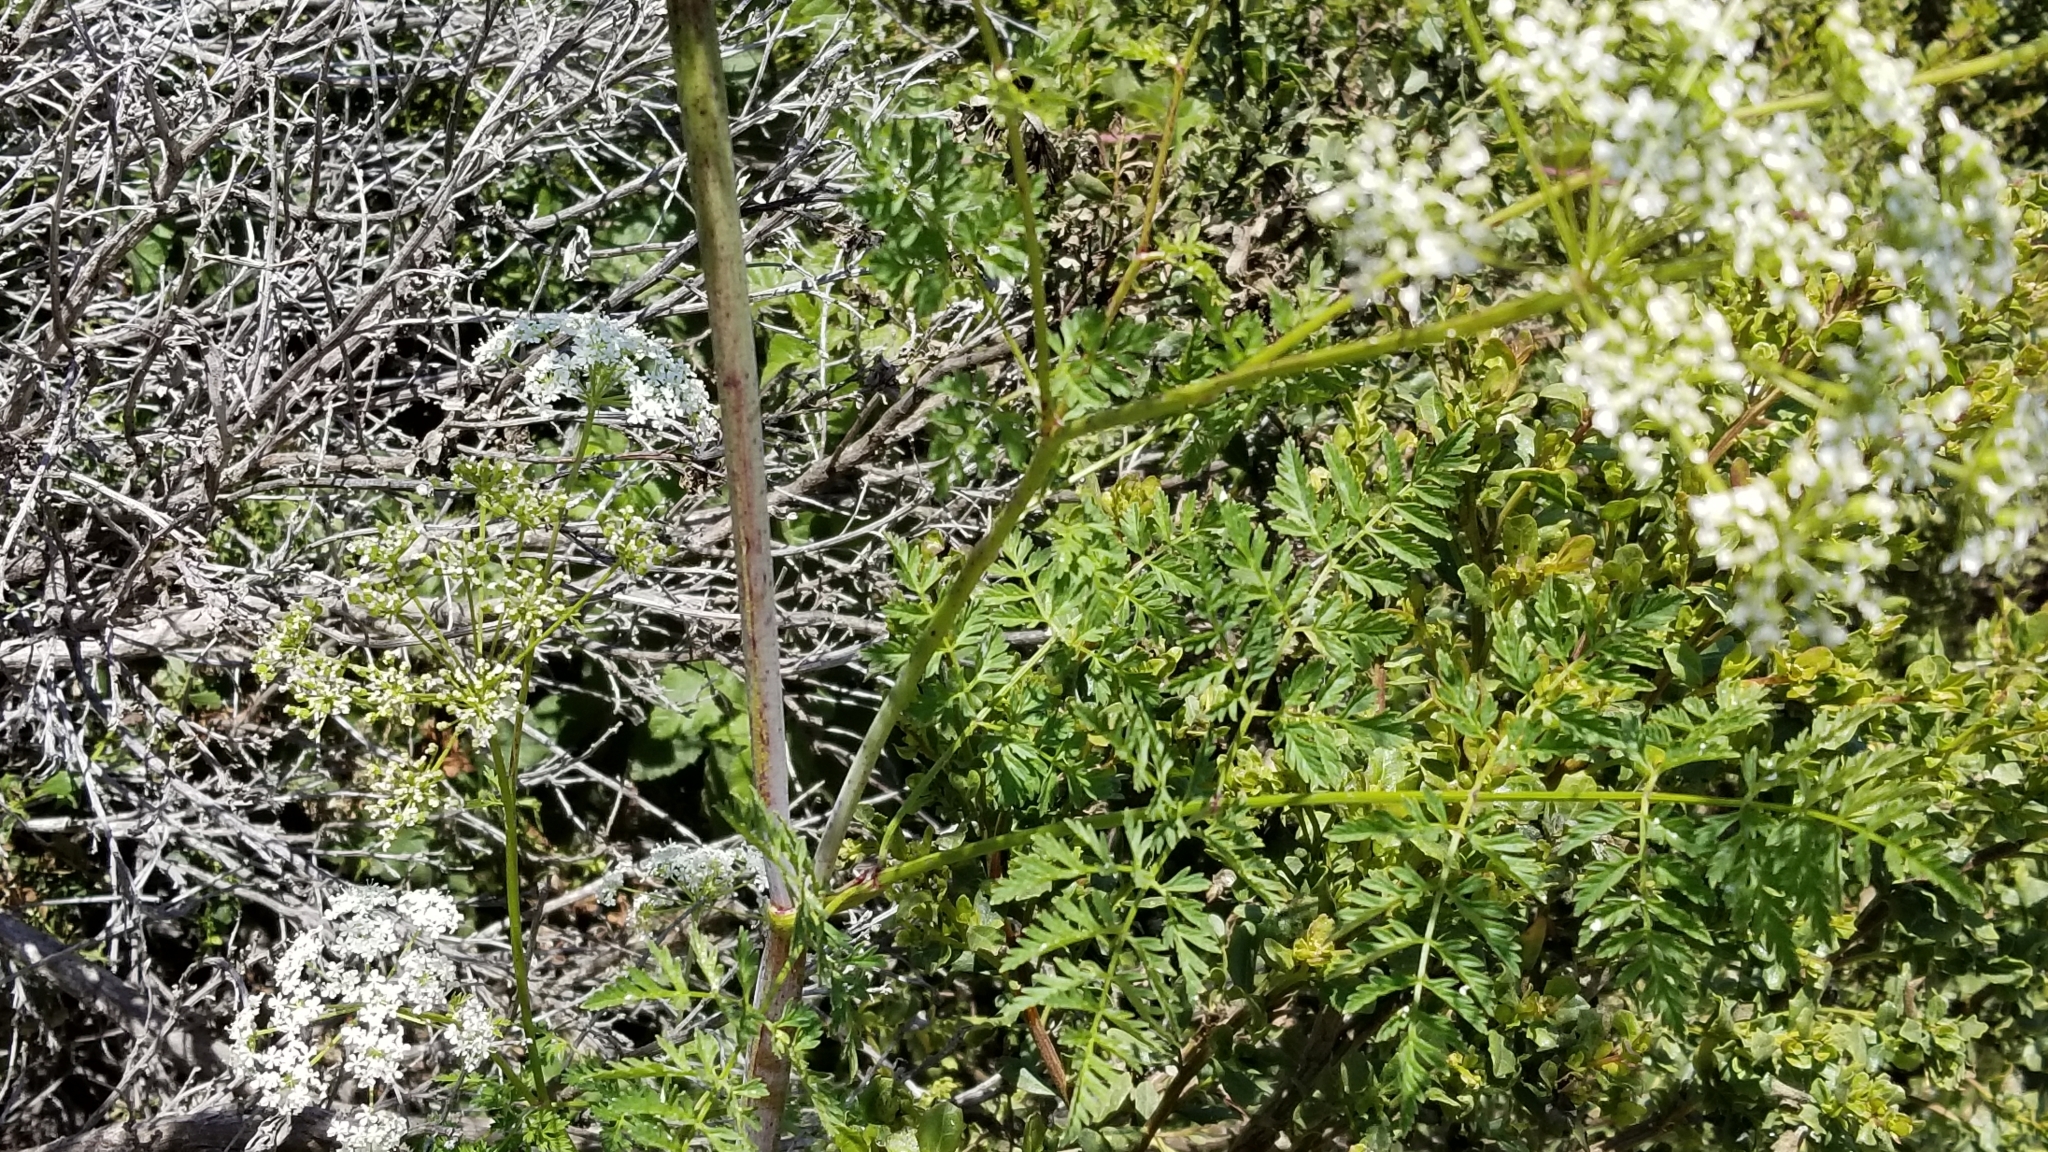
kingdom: Plantae
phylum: Tracheophyta
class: Magnoliopsida
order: Apiales
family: Apiaceae
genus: Conium
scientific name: Conium maculatum
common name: Hemlock
